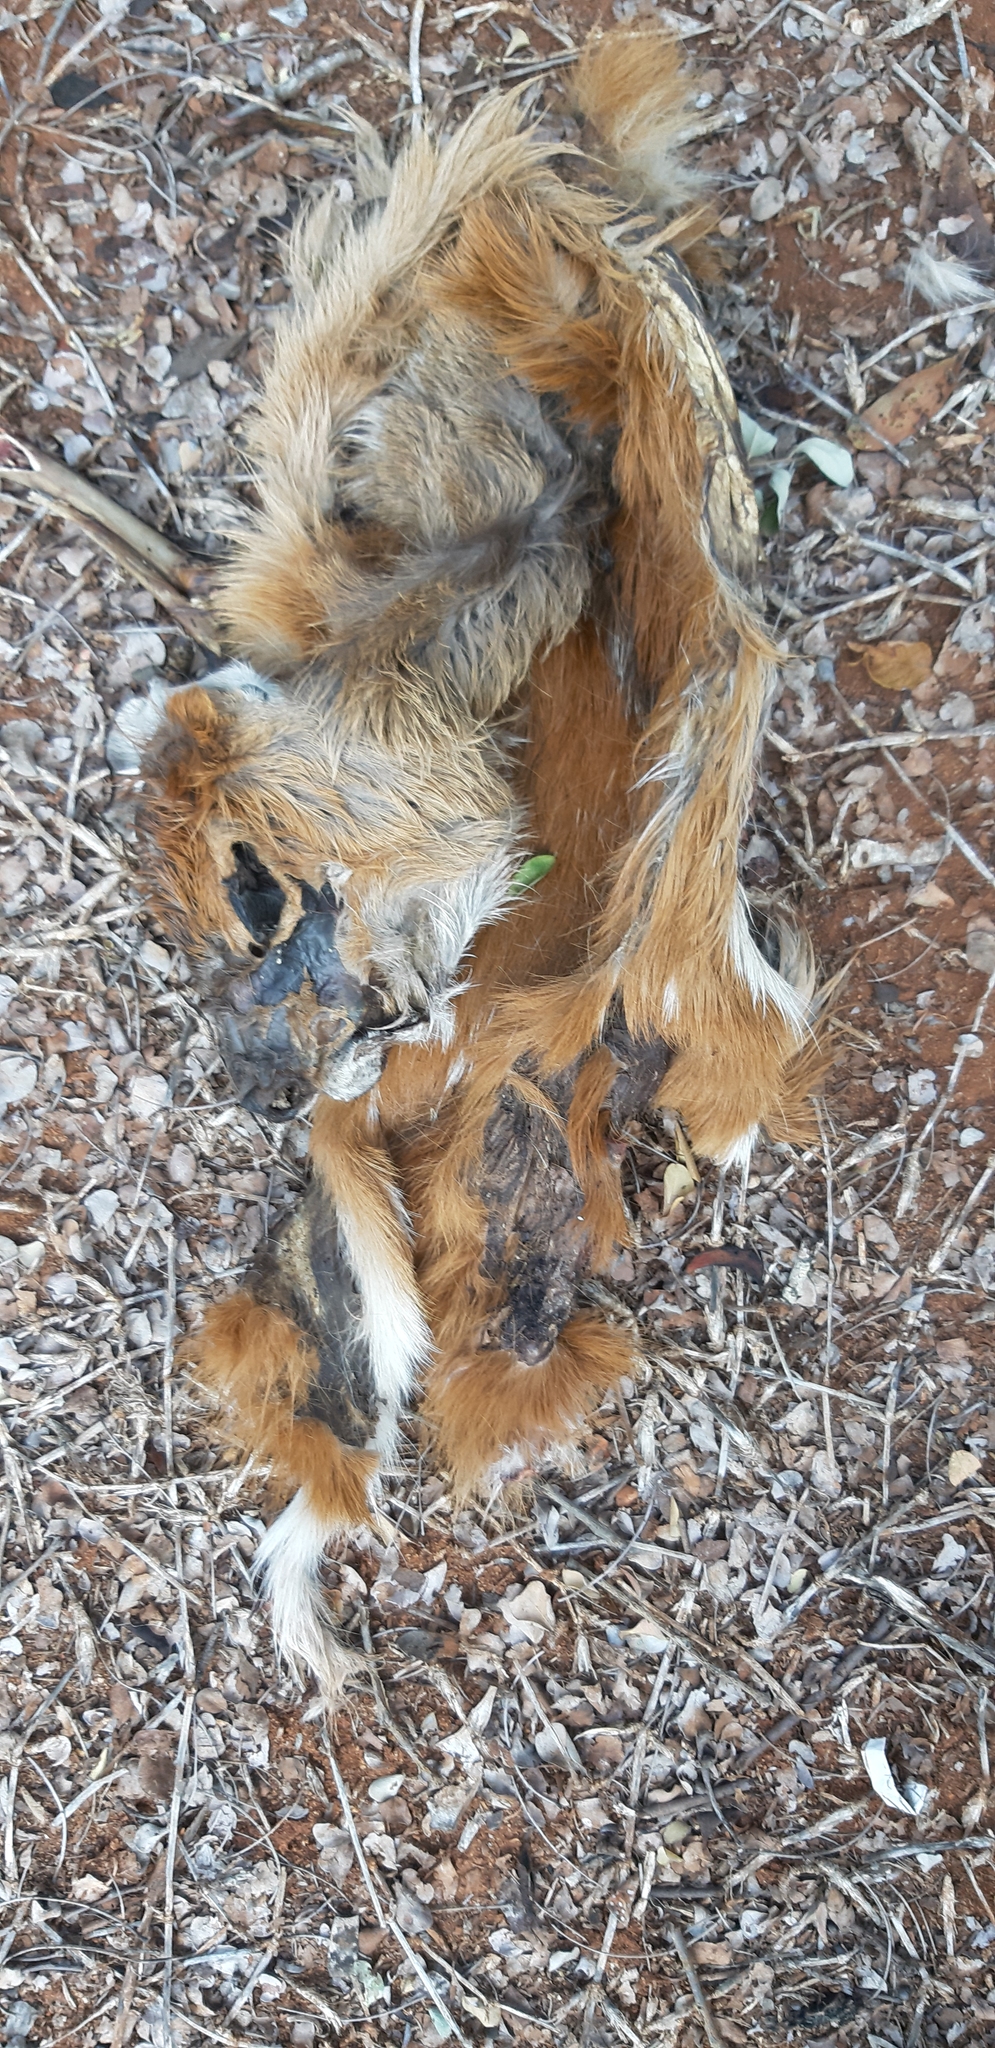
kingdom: Animalia
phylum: Chordata
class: Mammalia
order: Artiodactyla
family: Bovidae
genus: Tragelaphus
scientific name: Tragelaphus scriptus
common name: Bushbuck
